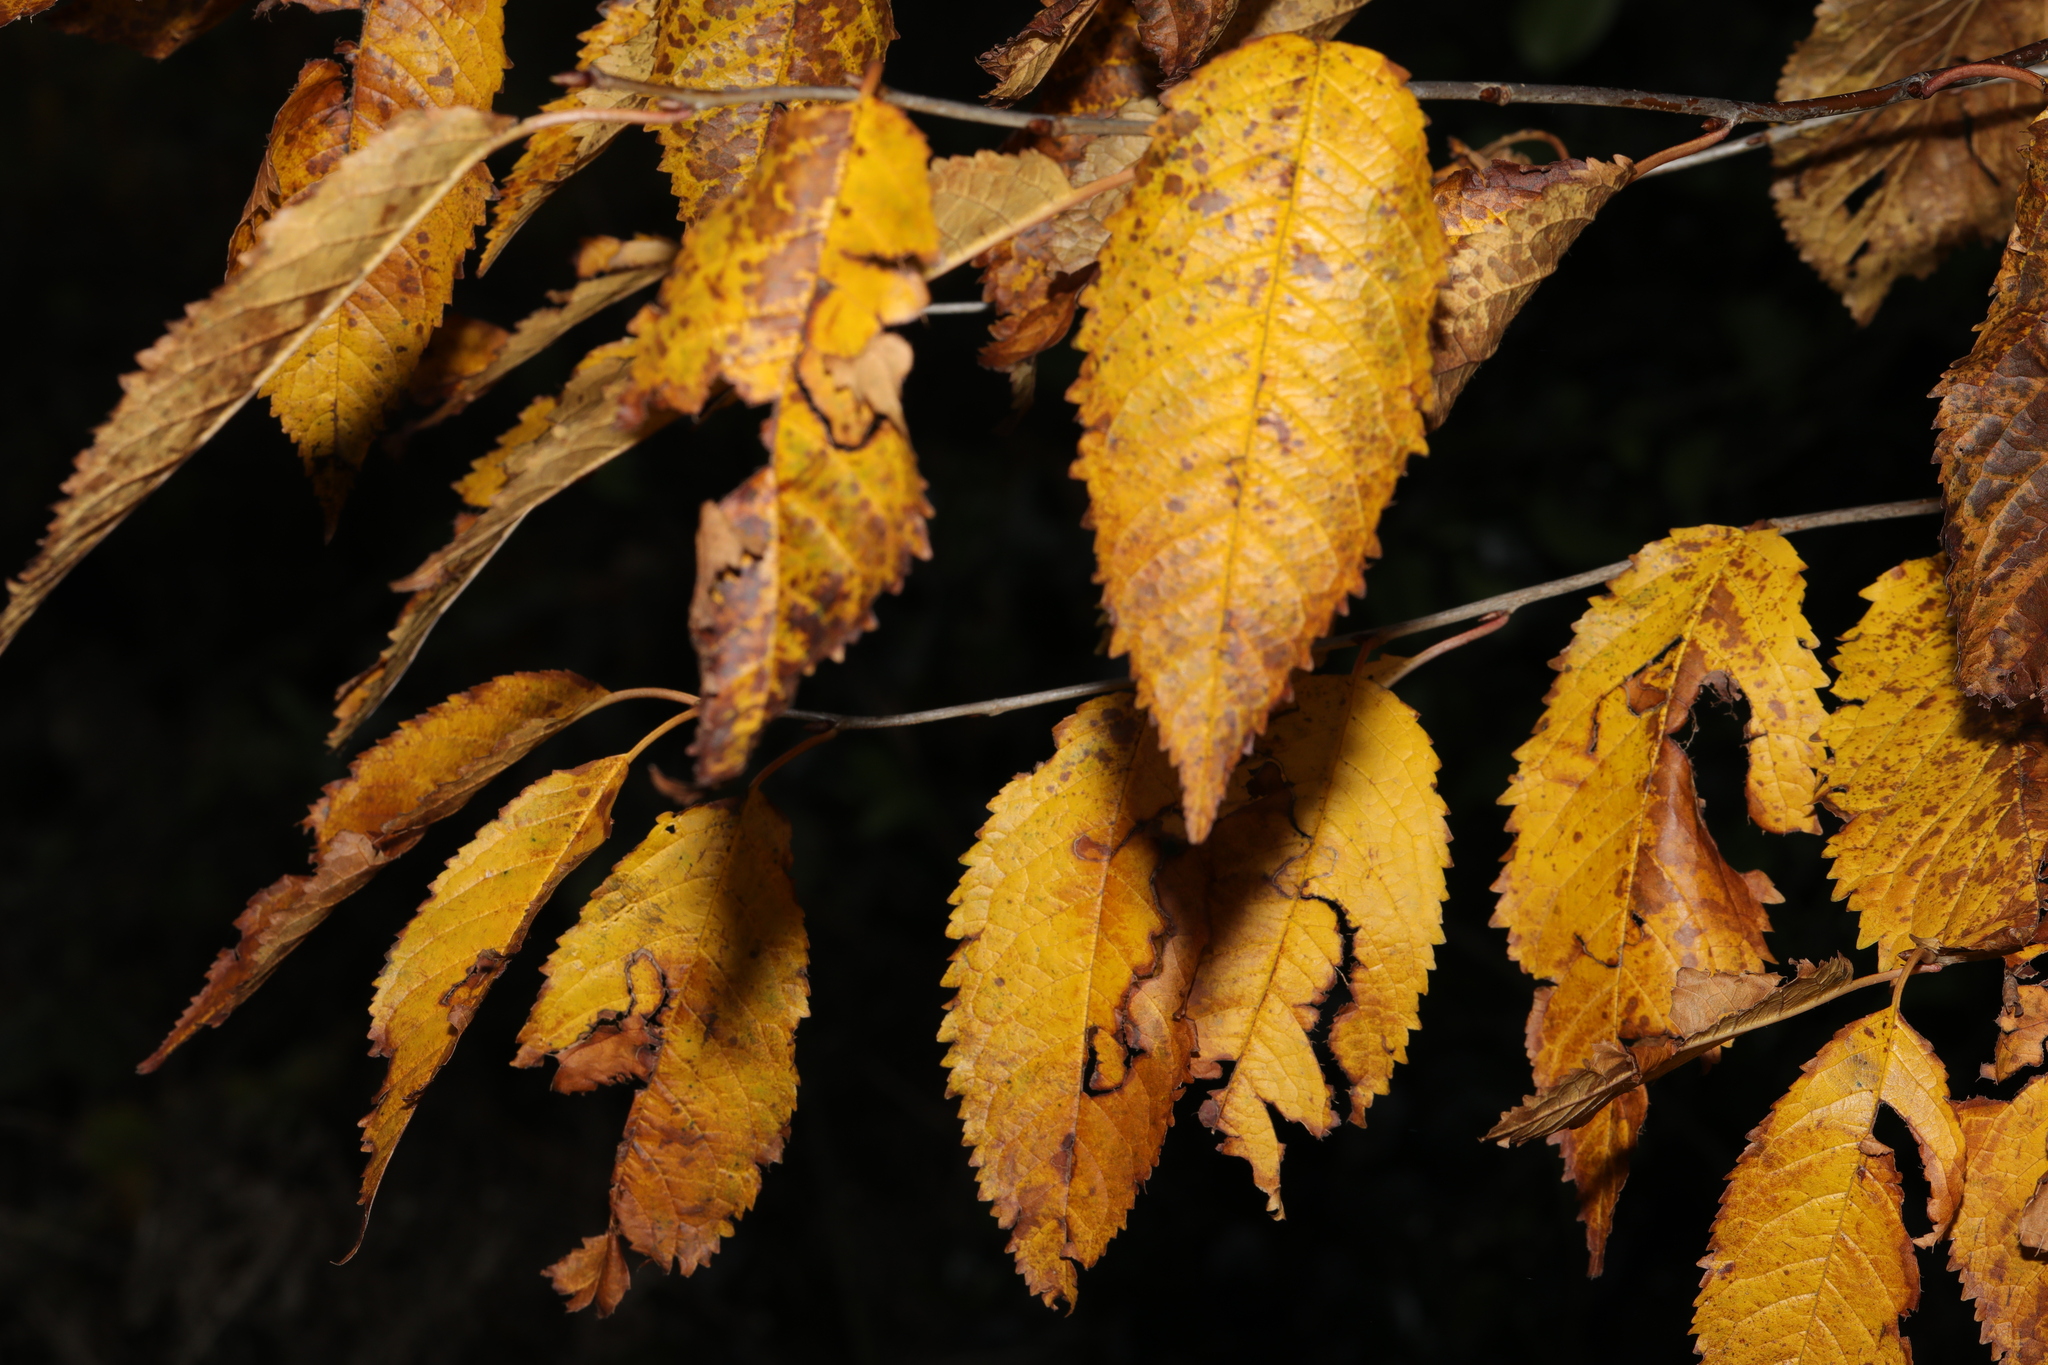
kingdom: Plantae
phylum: Tracheophyta
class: Magnoliopsida
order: Rosales
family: Rosaceae
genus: Prunus
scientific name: Prunus avium
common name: Sweet cherry
